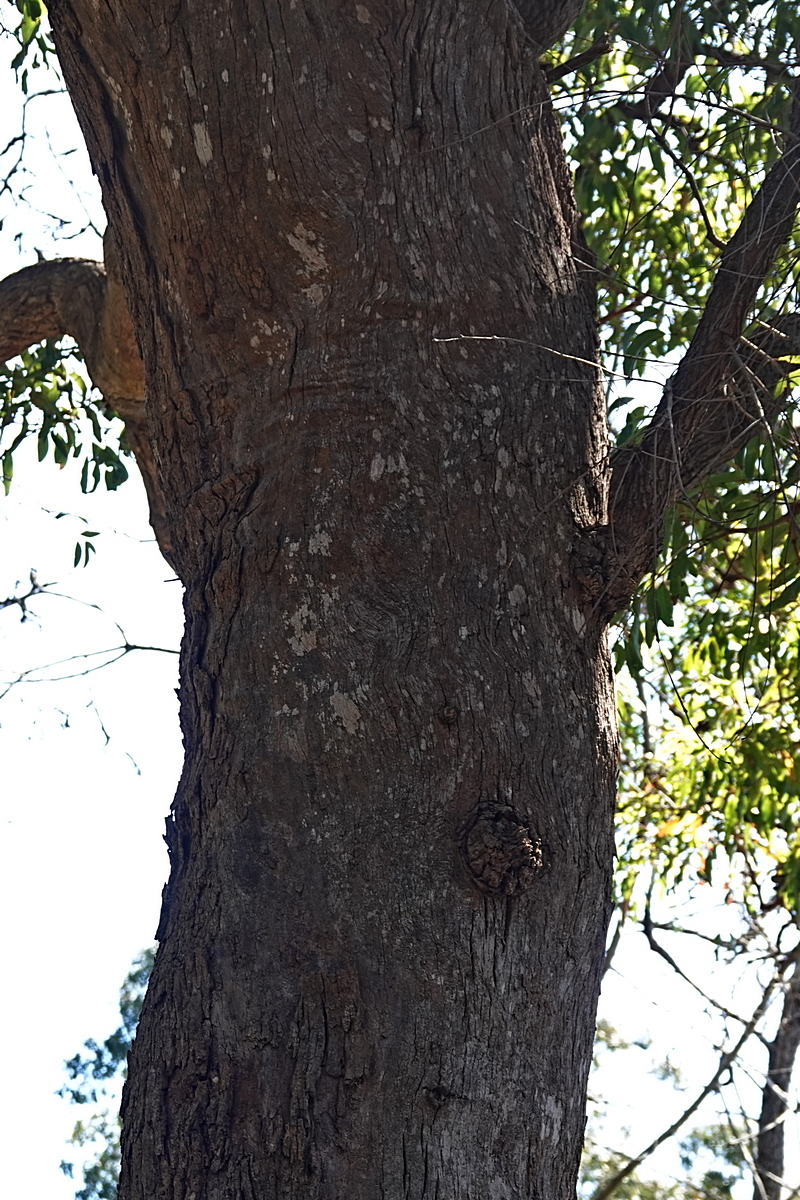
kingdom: Plantae
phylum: Tracheophyta
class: Magnoliopsida
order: Myrtales
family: Myrtaceae
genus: Angophora
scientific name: Angophora floribunda
